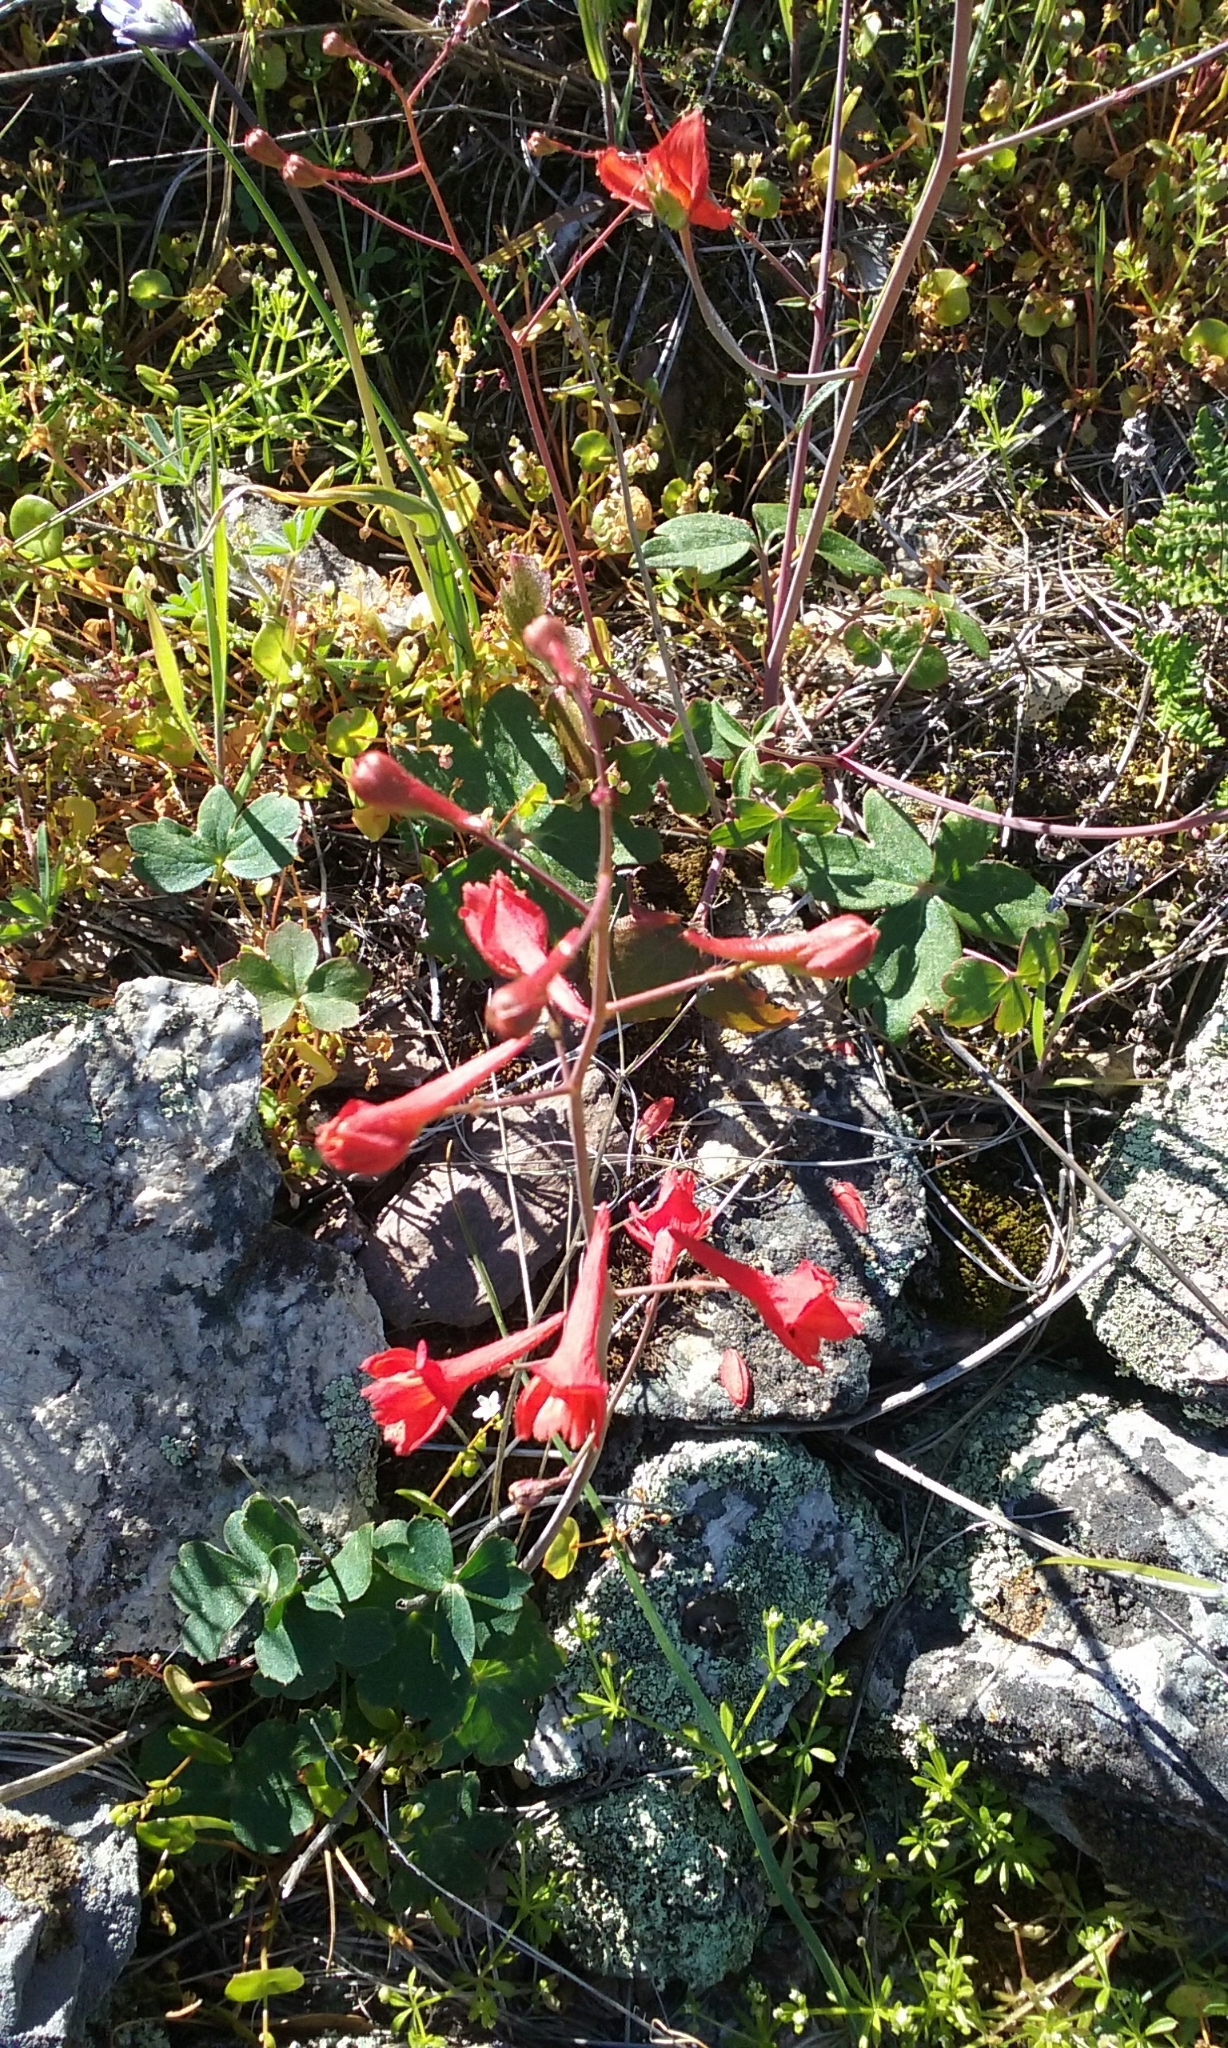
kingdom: Plantae
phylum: Tracheophyta
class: Magnoliopsida
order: Ranunculales
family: Ranunculaceae
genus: Delphinium
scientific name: Delphinium nudicaule
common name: Red larkspur
